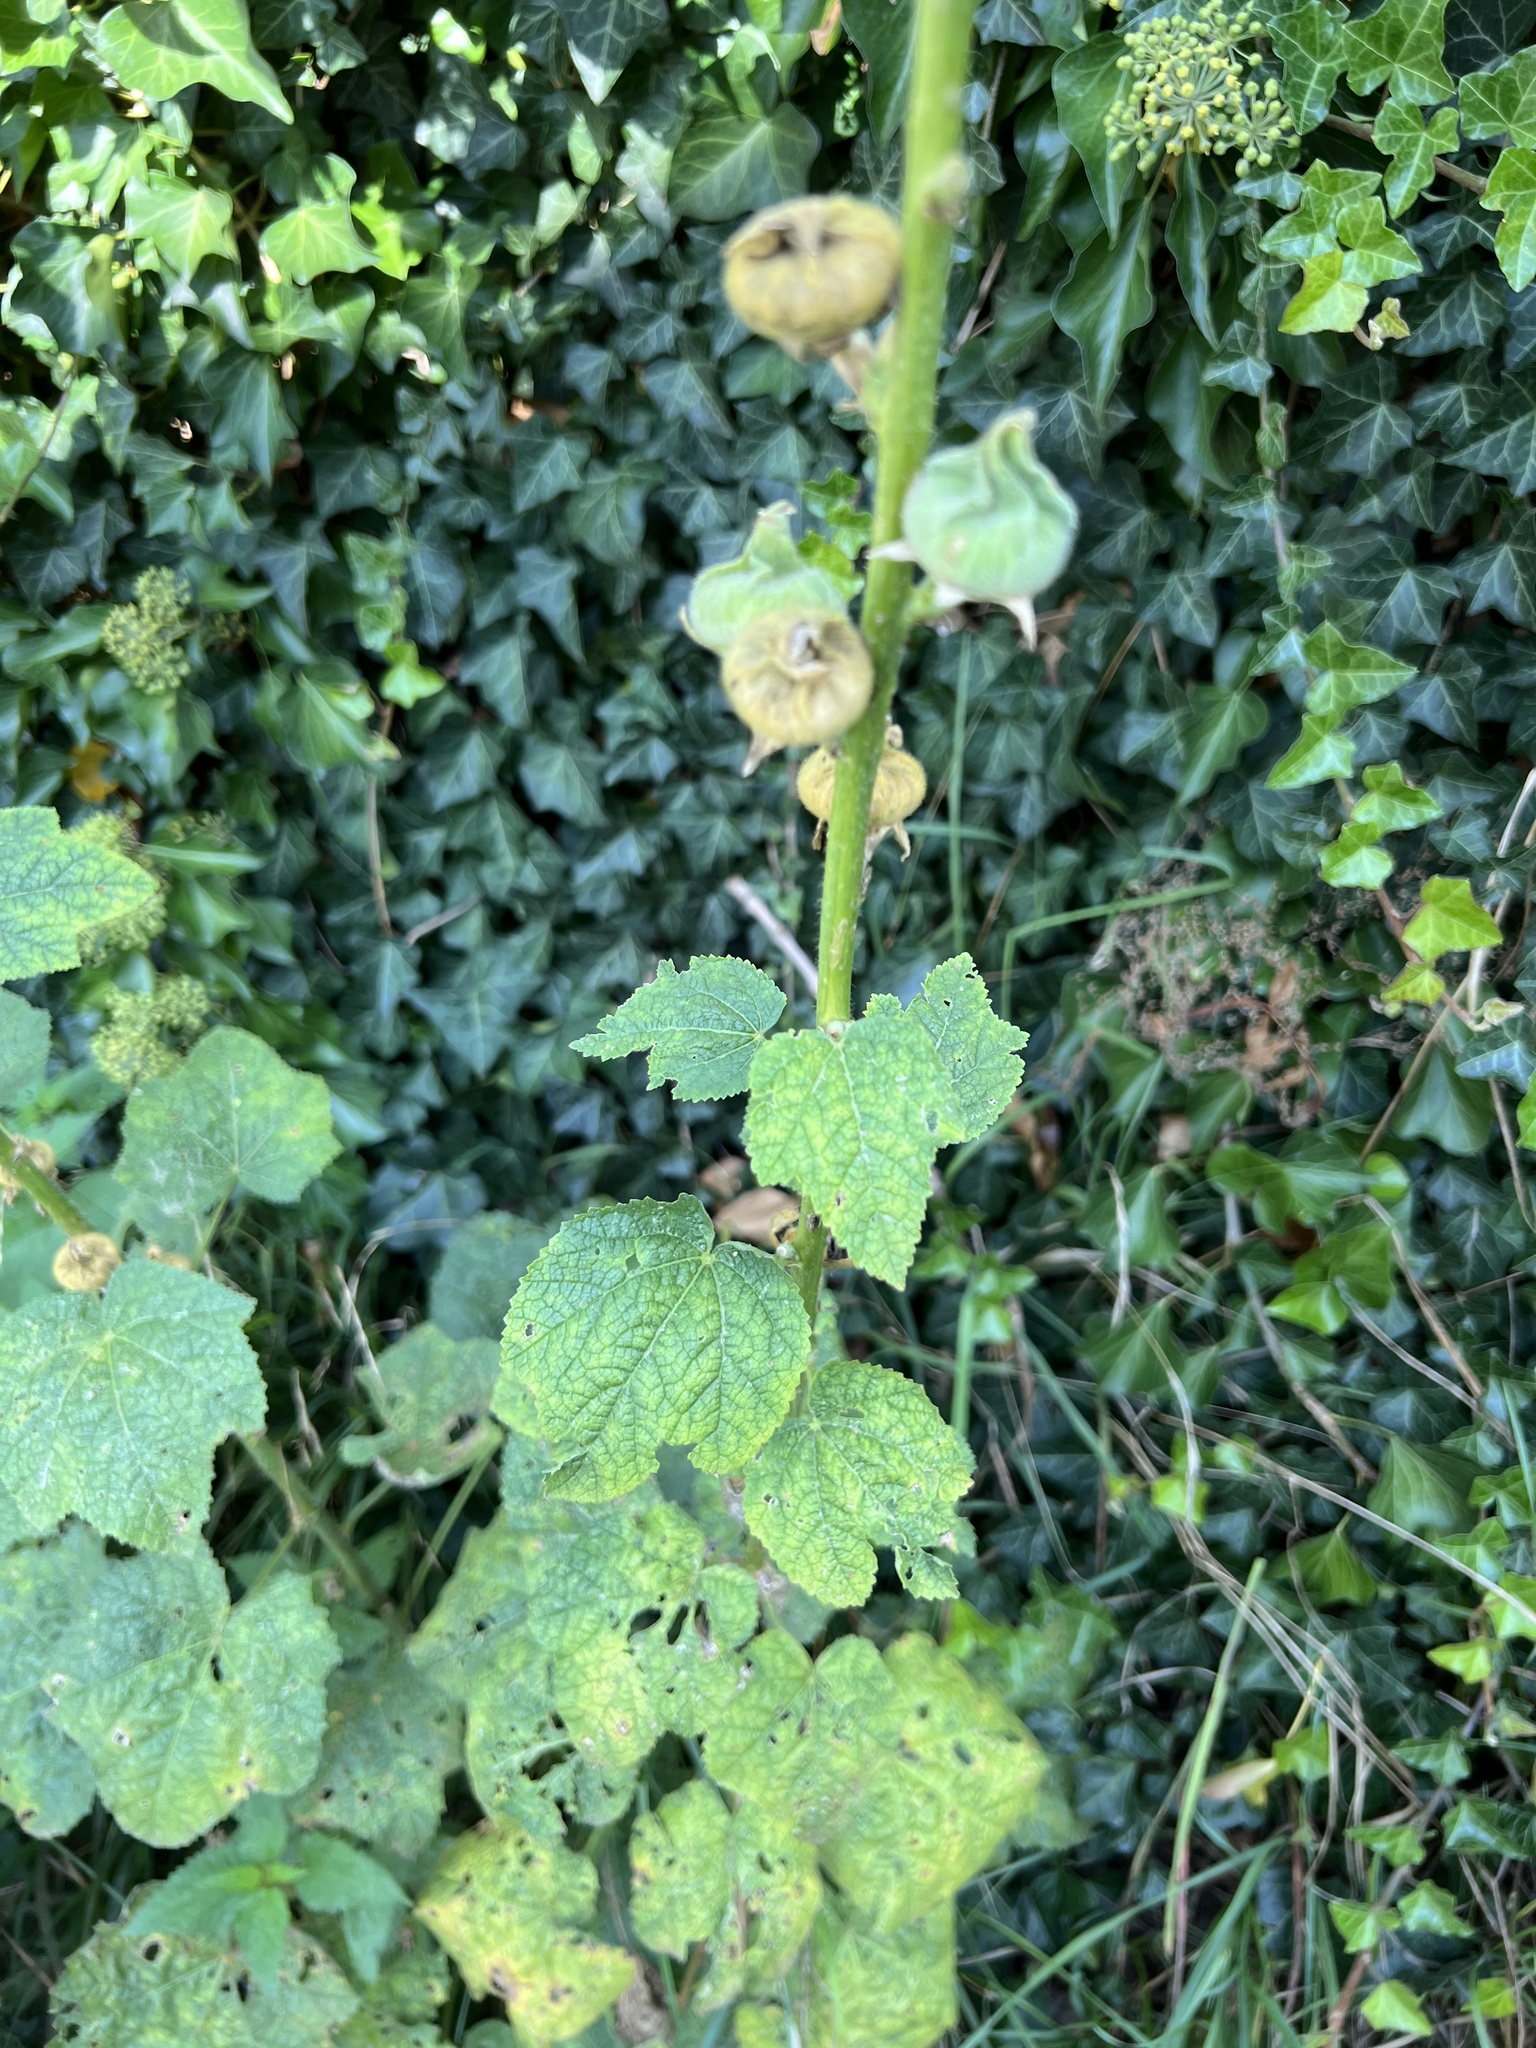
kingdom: Plantae
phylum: Tracheophyta
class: Magnoliopsida
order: Malvales
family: Malvaceae
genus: Alcea
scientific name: Alcea rosea
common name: Hollyhock
